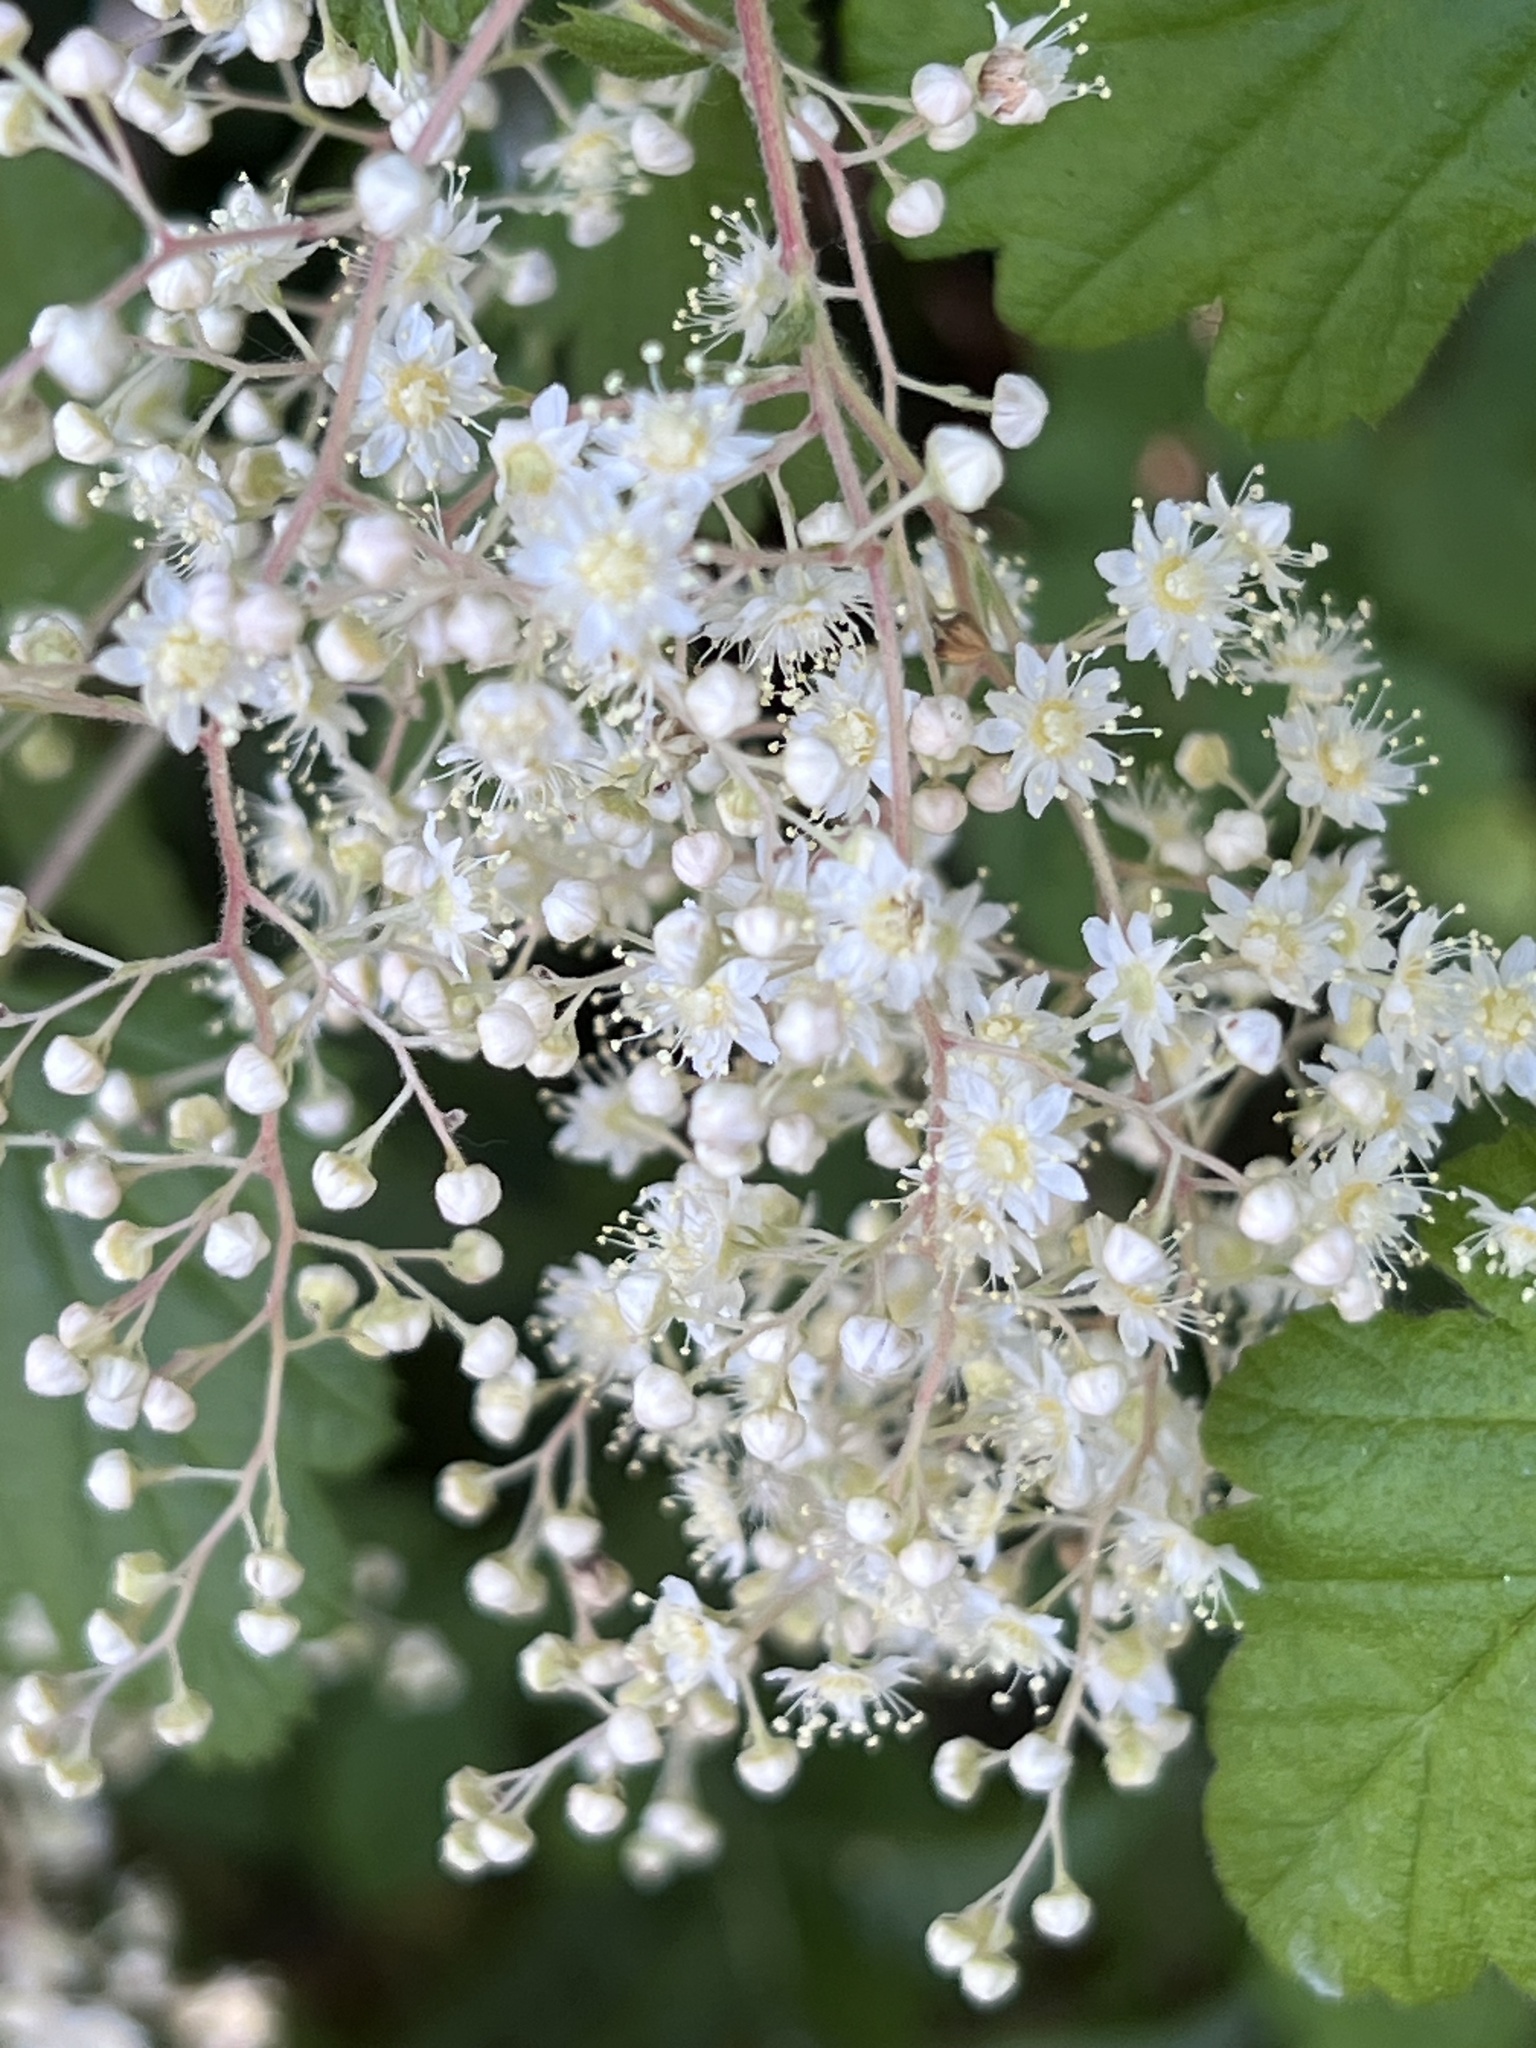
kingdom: Plantae
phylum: Tracheophyta
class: Magnoliopsida
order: Rosales
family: Rosaceae
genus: Holodiscus
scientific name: Holodiscus discolor
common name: Oceanspray
